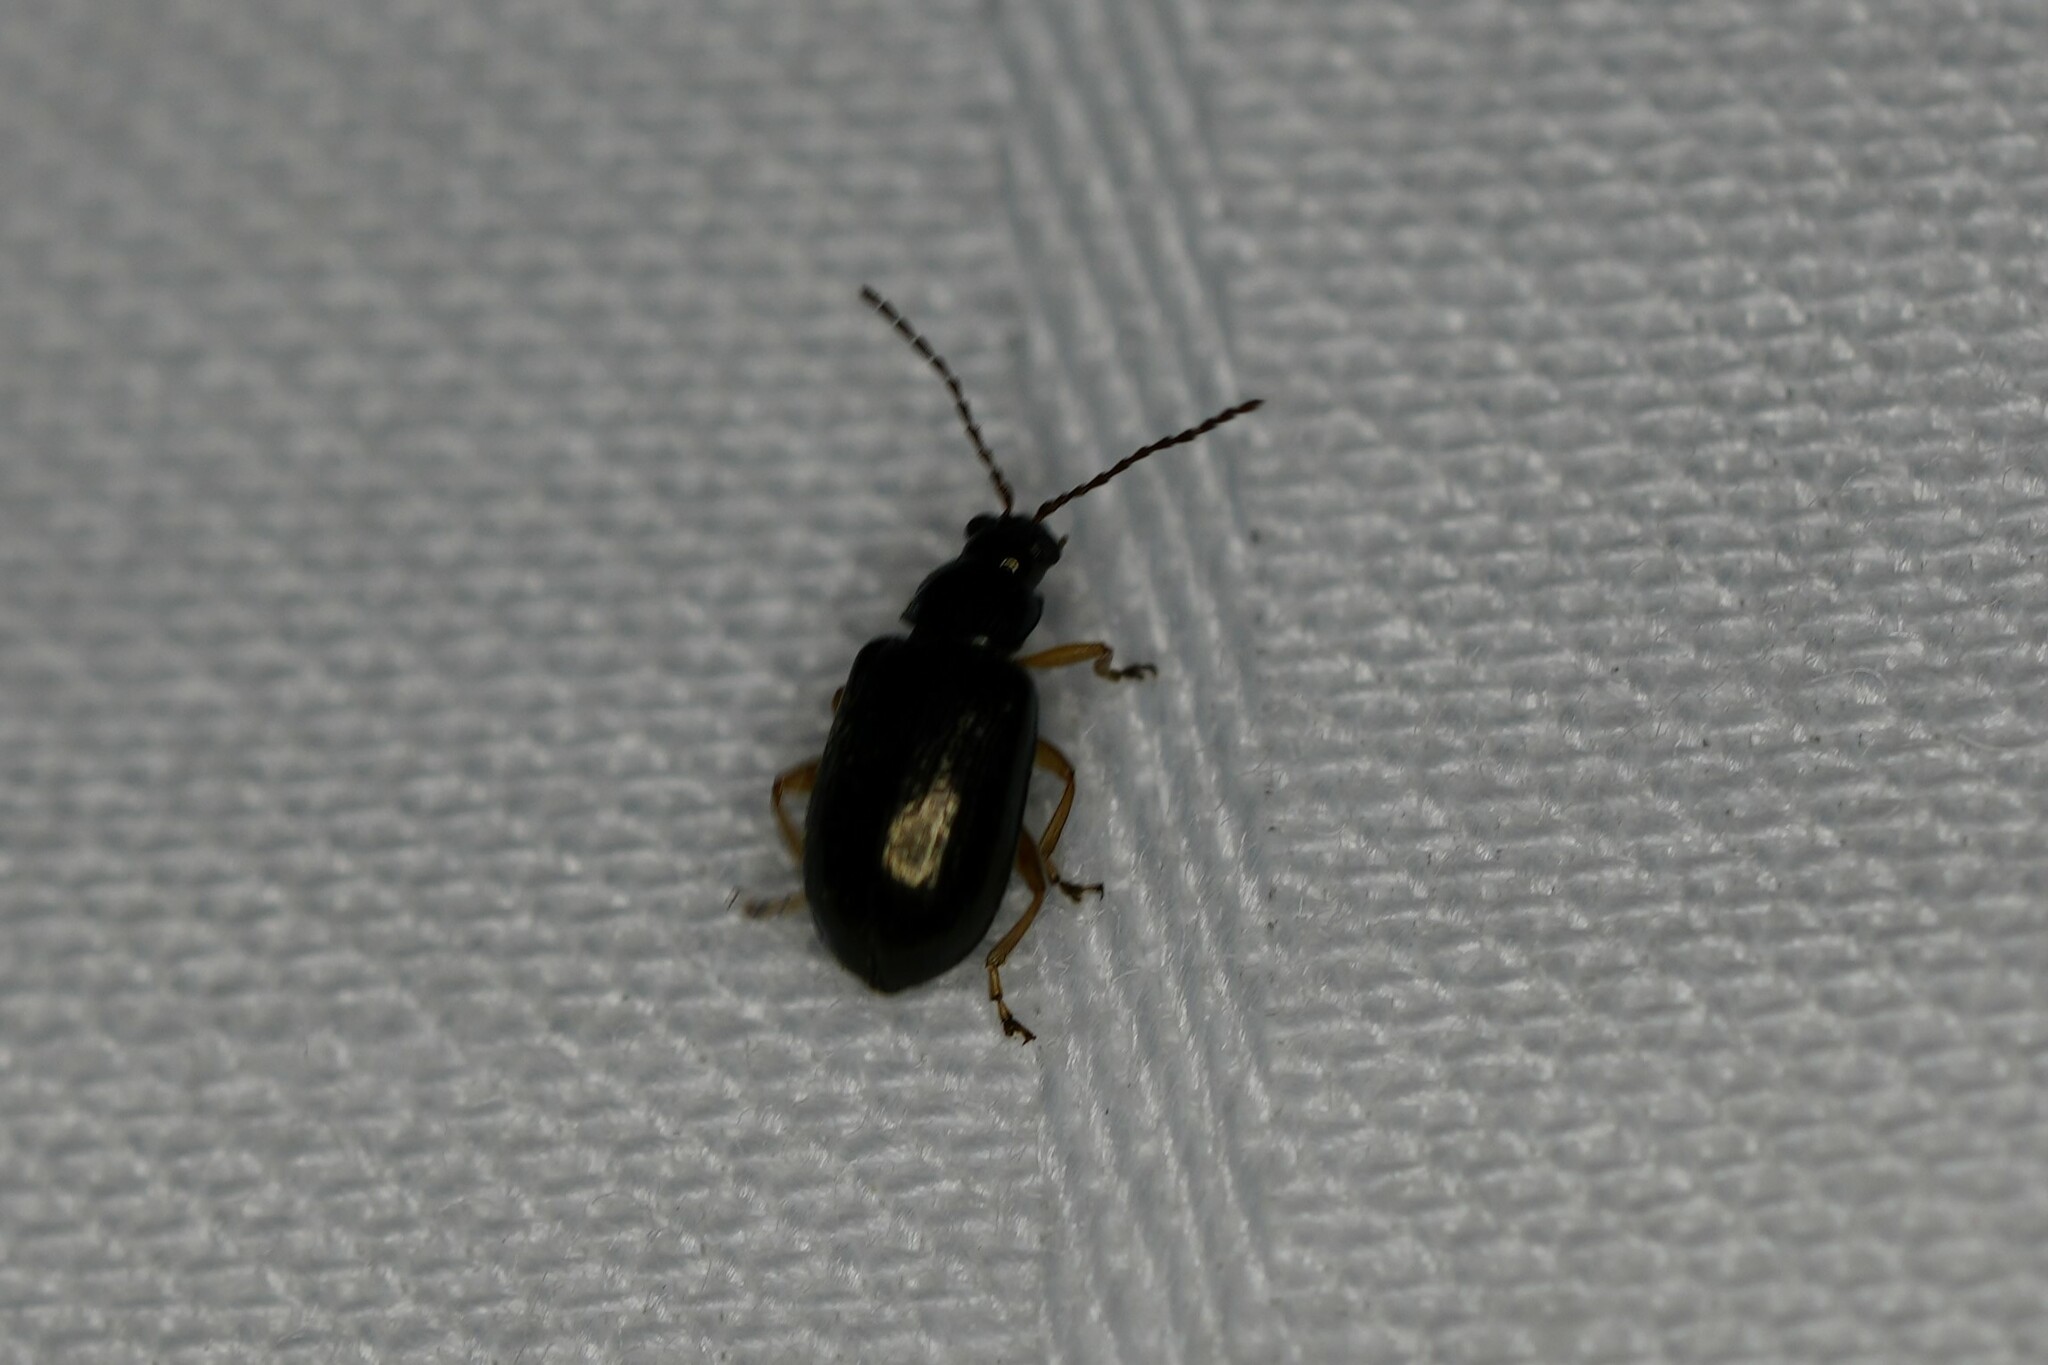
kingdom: Animalia
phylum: Arthropoda
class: Insecta
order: Coleoptera
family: Chrysomelidae
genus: Lysathia
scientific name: Lysathia ludoviciana
